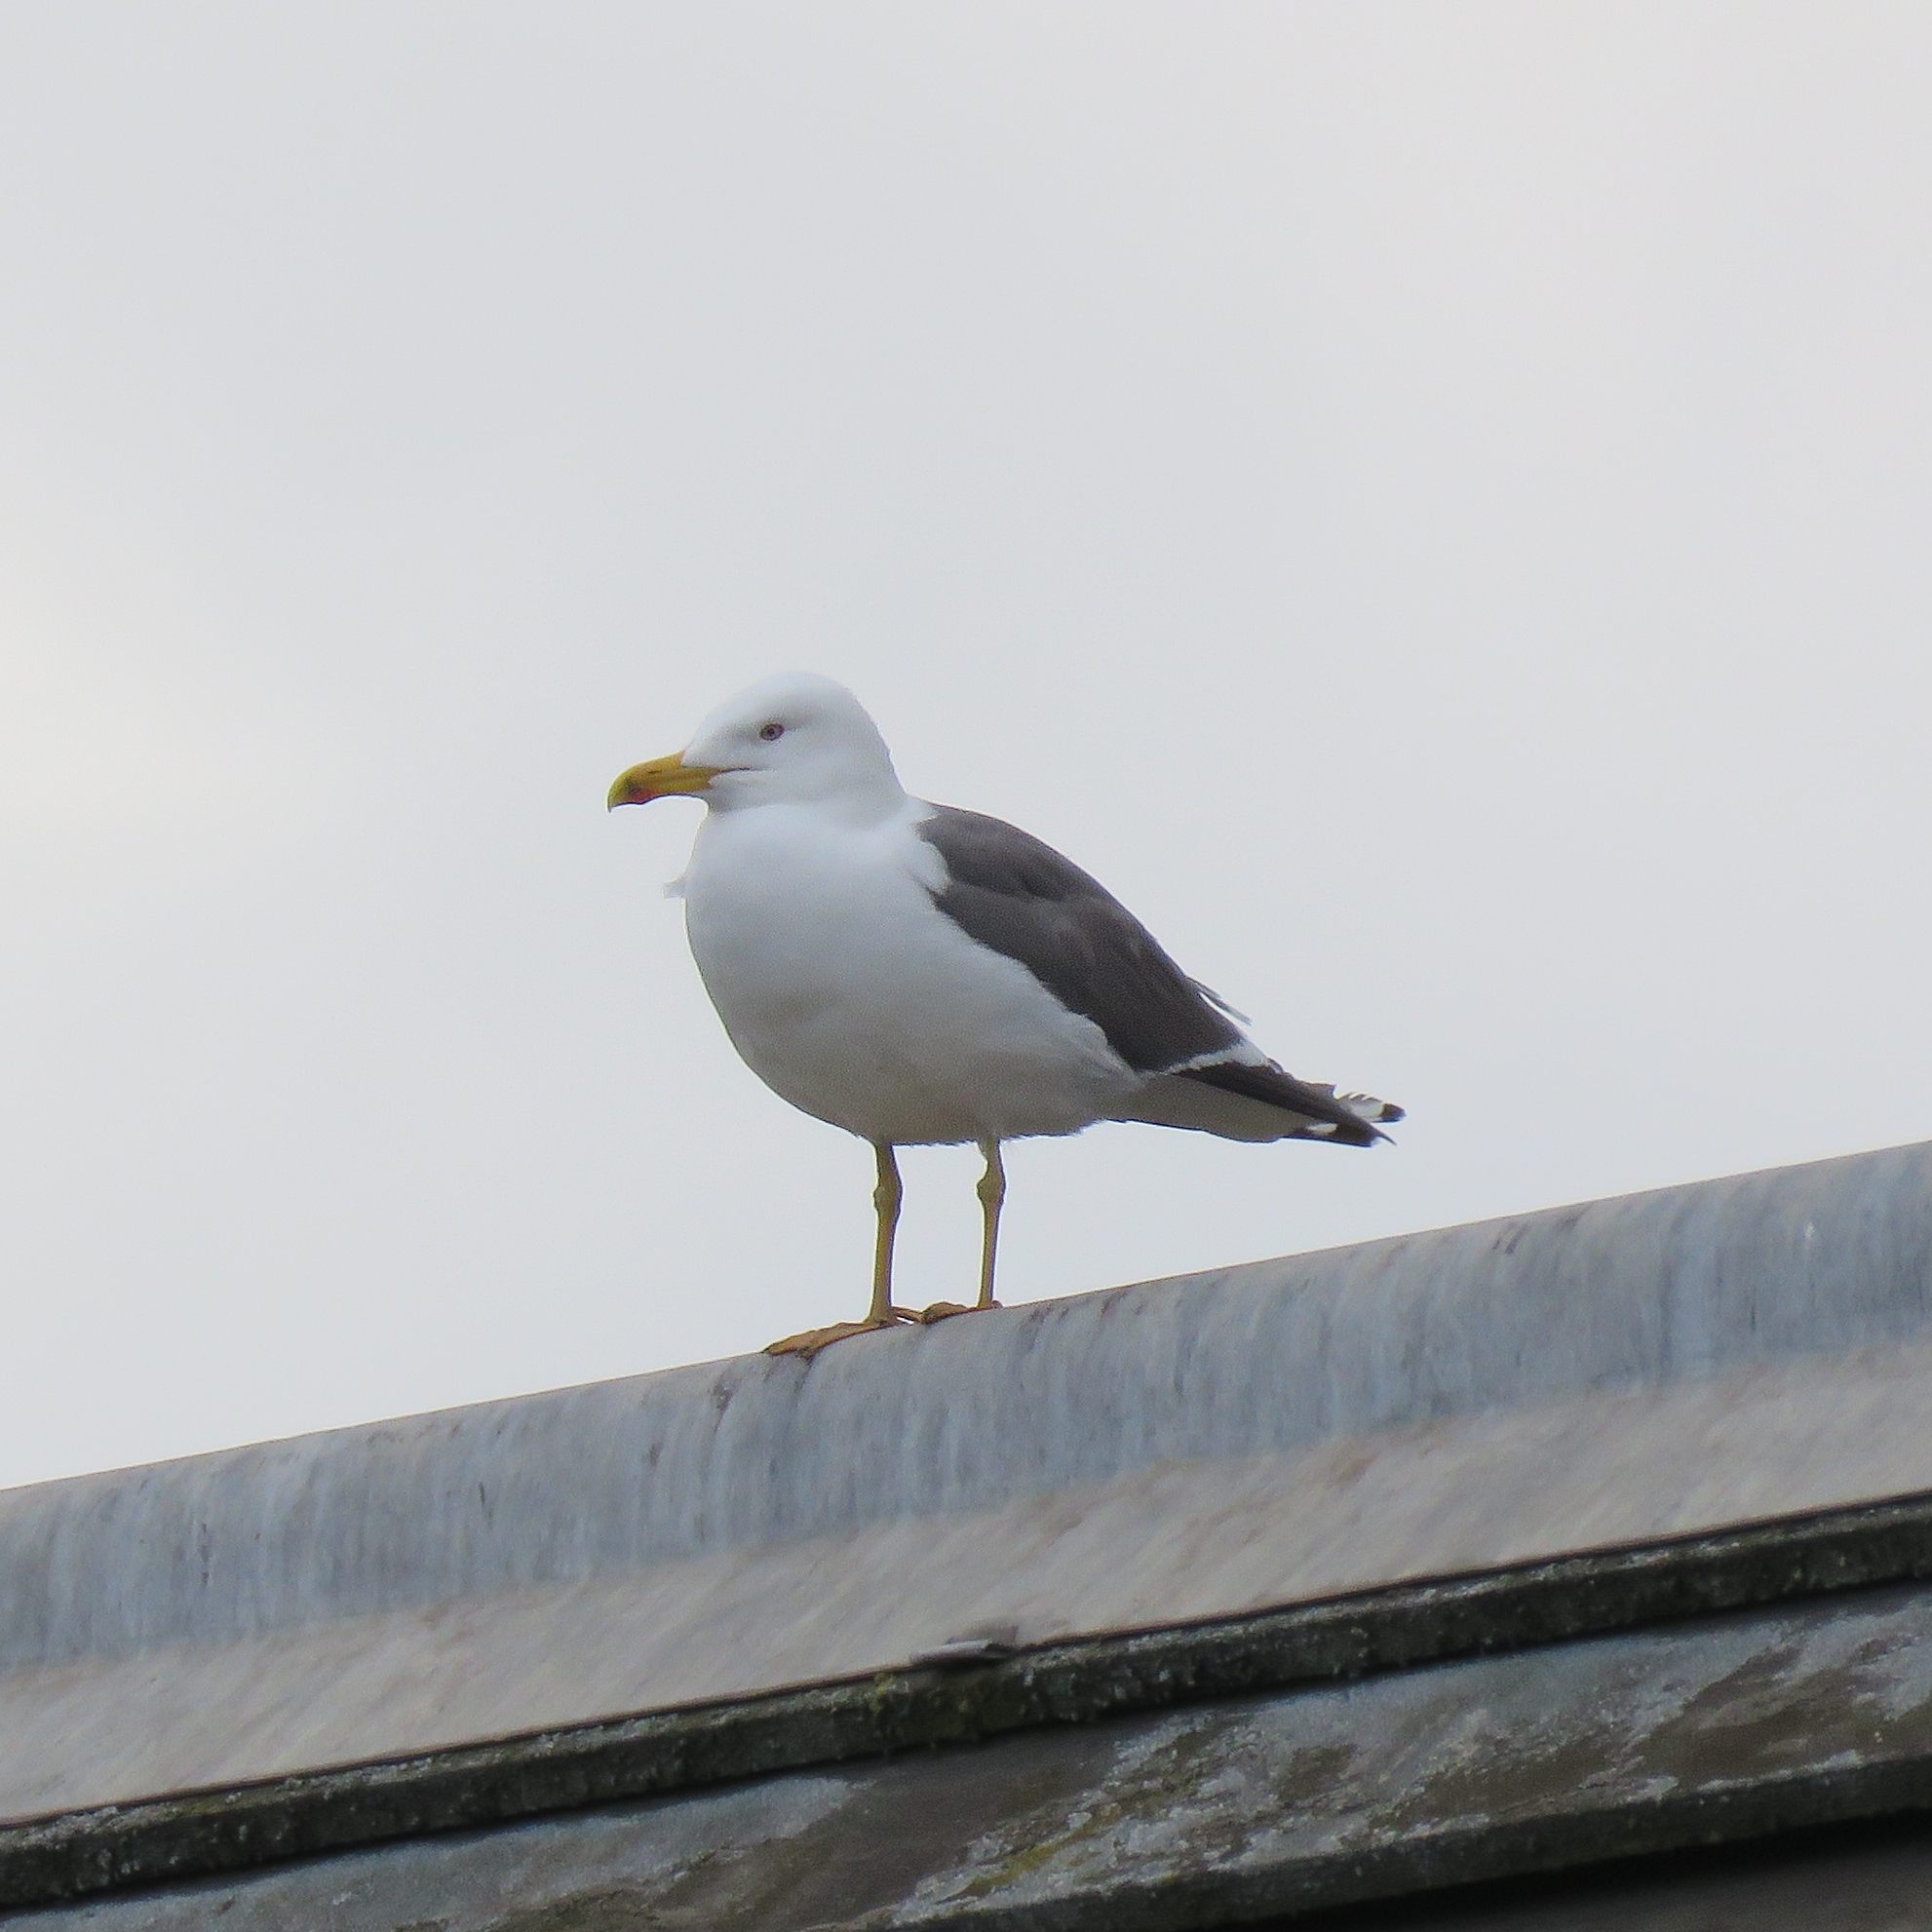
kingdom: Animalia
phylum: Chordata
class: Aves
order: Charadriiformes
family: Laridae
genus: Larus
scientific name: Larus fuscus
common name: Lesser black-backed gull
